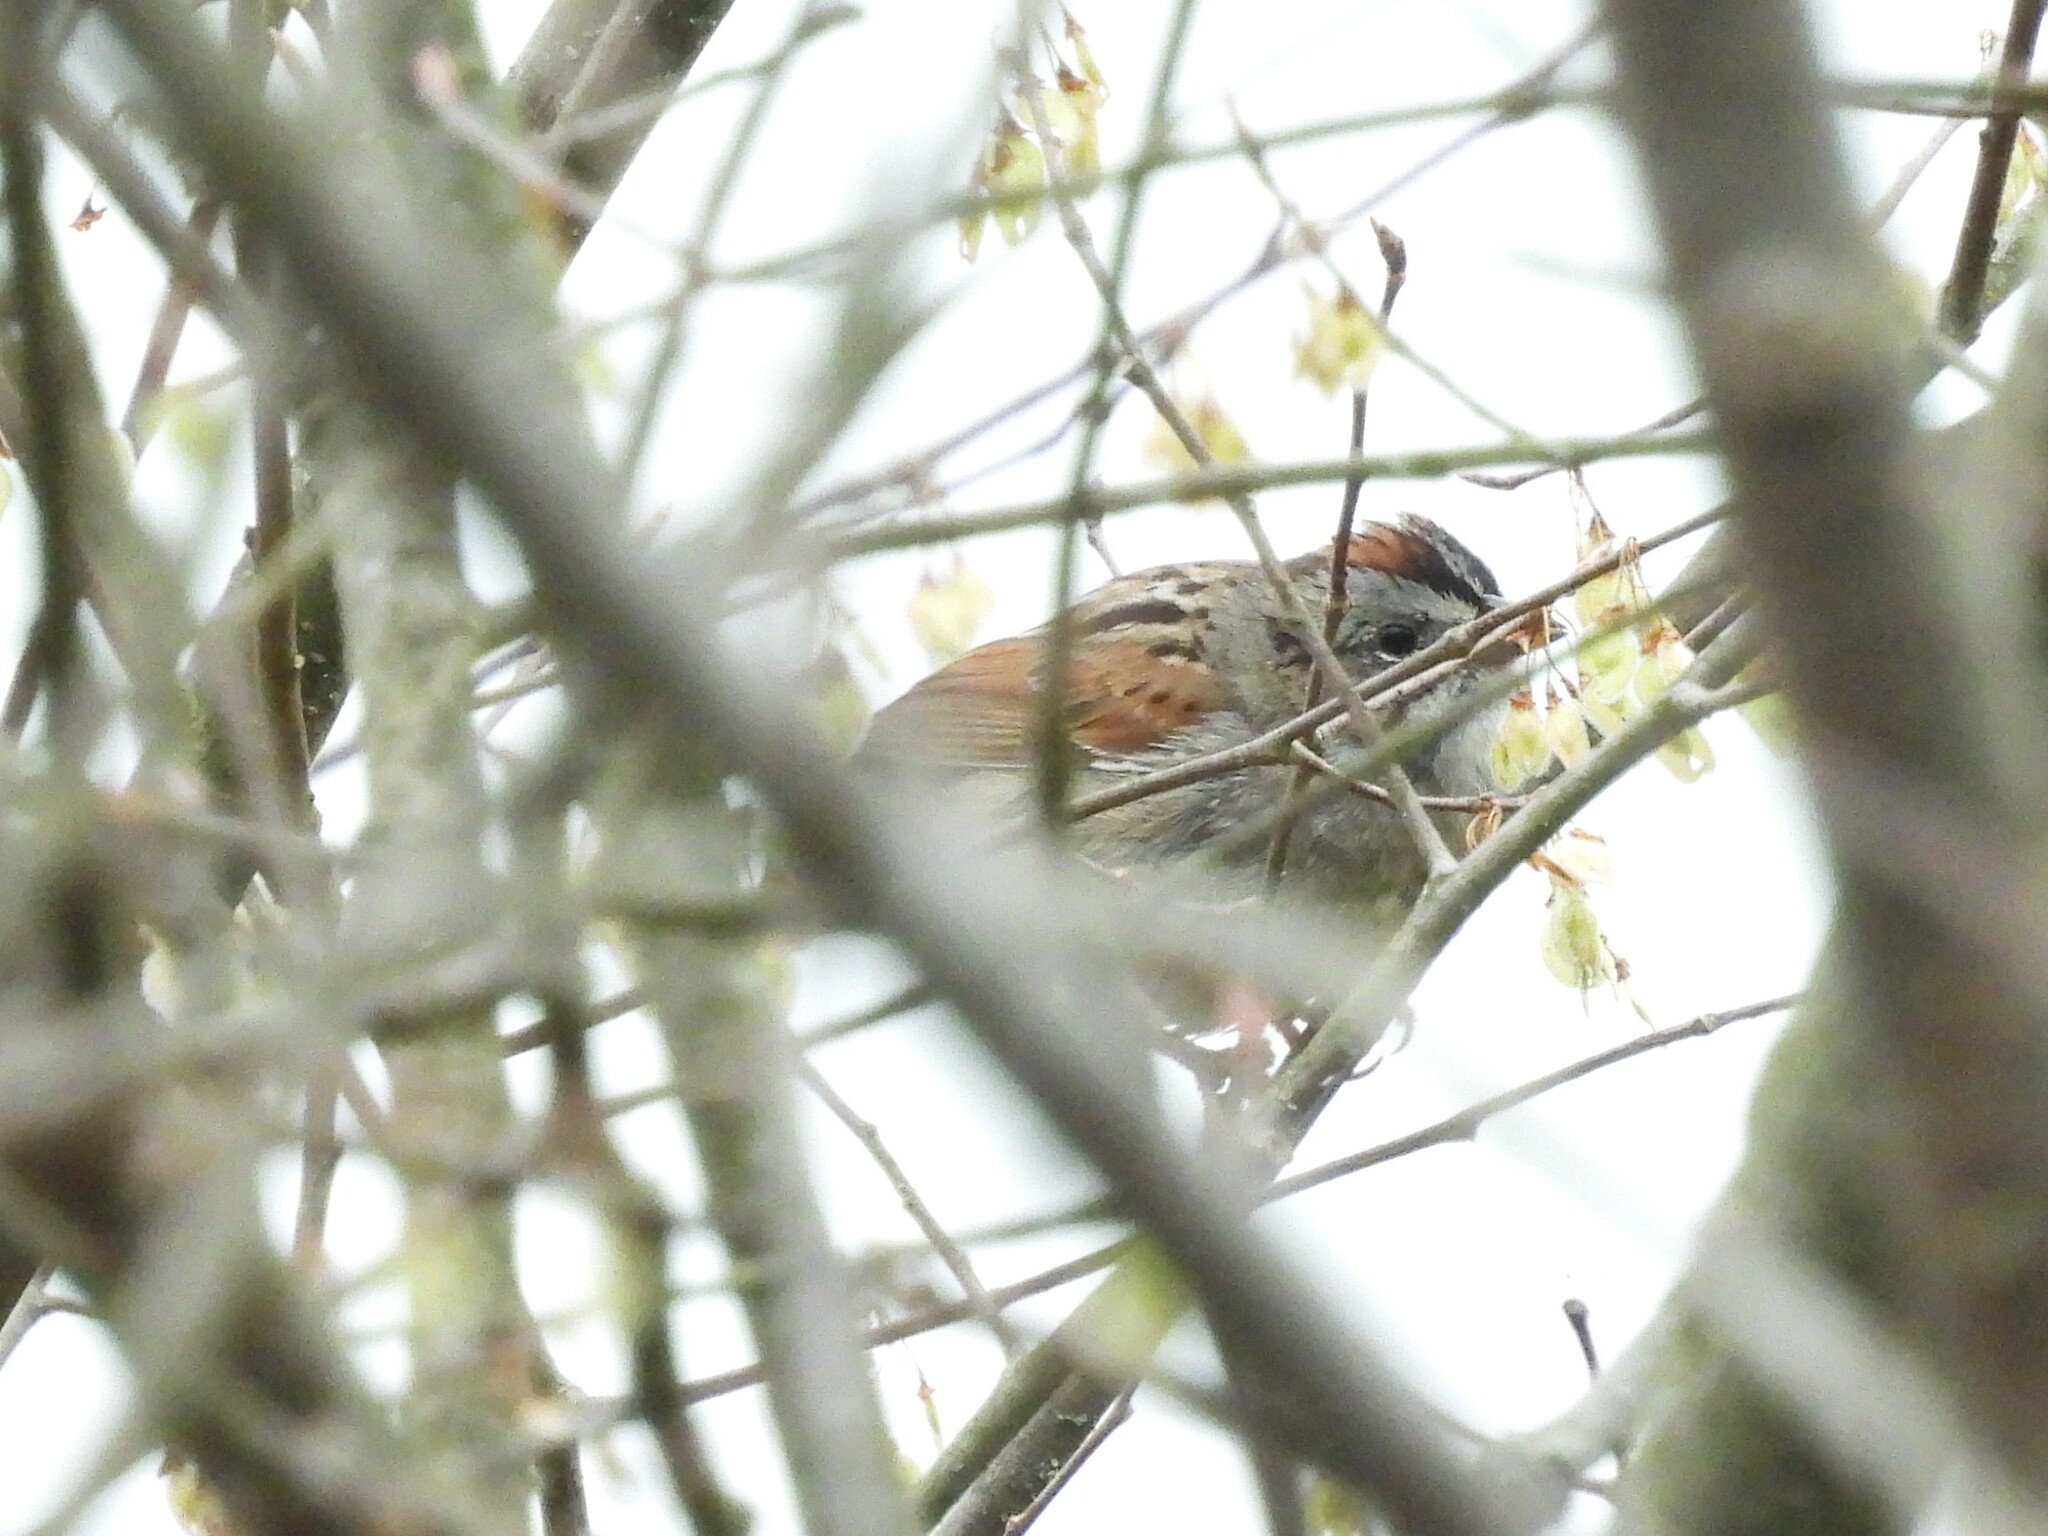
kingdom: Animalia
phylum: Chordata
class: Aves
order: Passeriformes
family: Passerellidae
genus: Melospiza
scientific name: Melospiza georgiana
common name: Swamp sparrow
